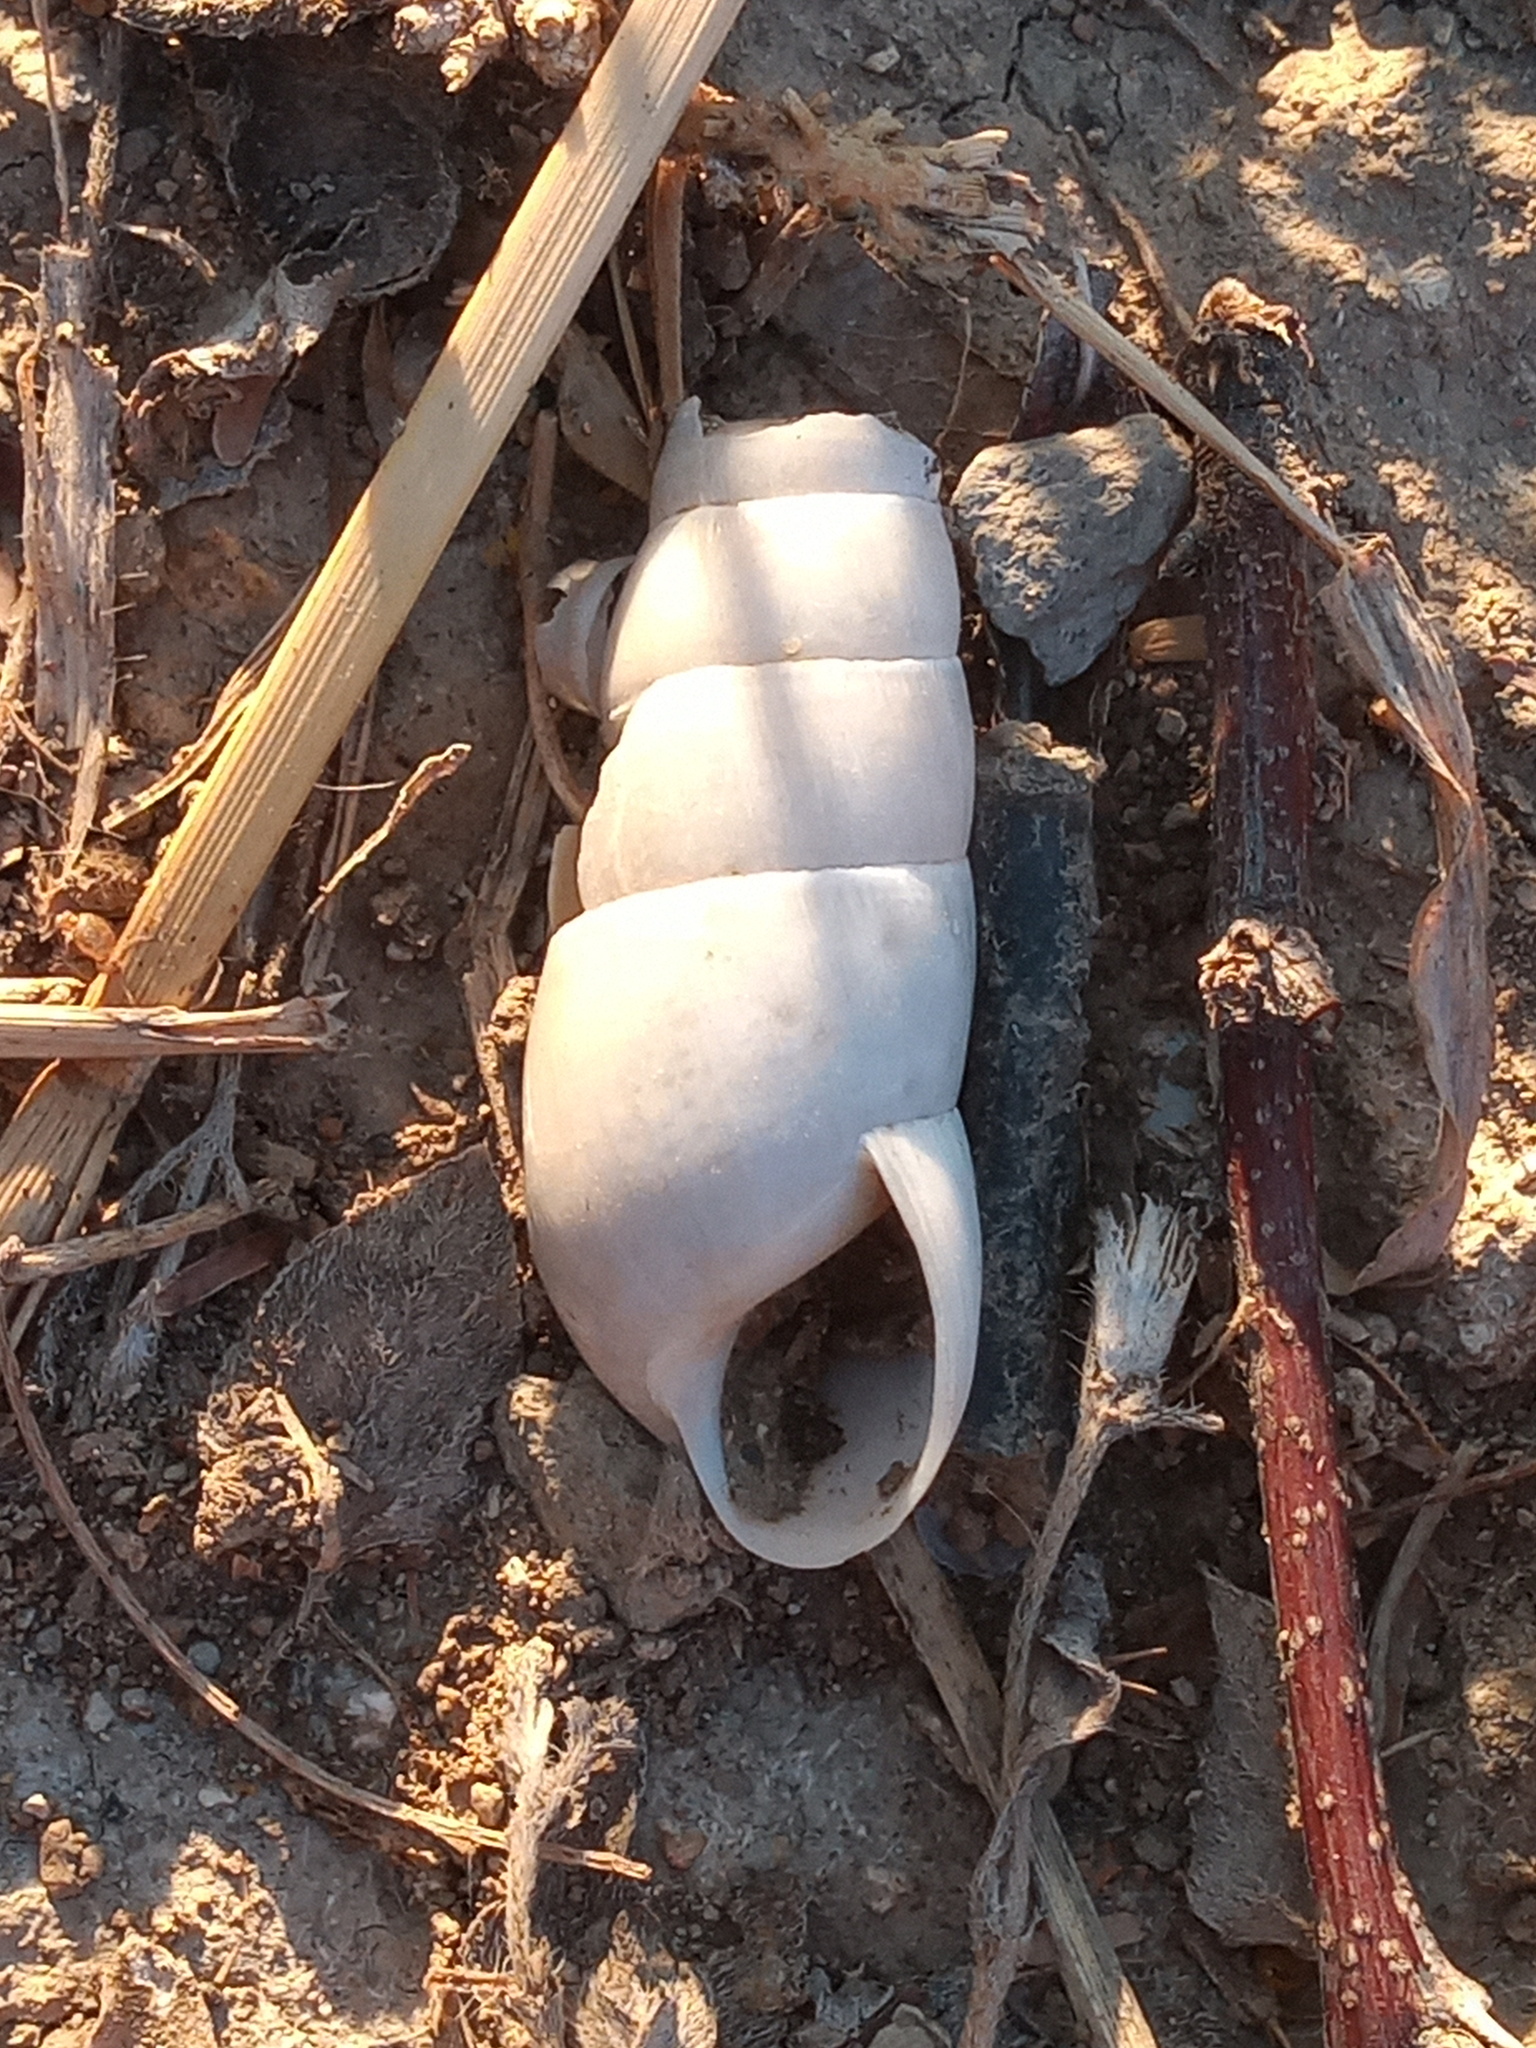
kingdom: Animalia
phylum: Mollusca
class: Gastropoda
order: Stylommatophora
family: Achatinidae
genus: Rumina
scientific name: Rumina decollata
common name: Decollate snail
